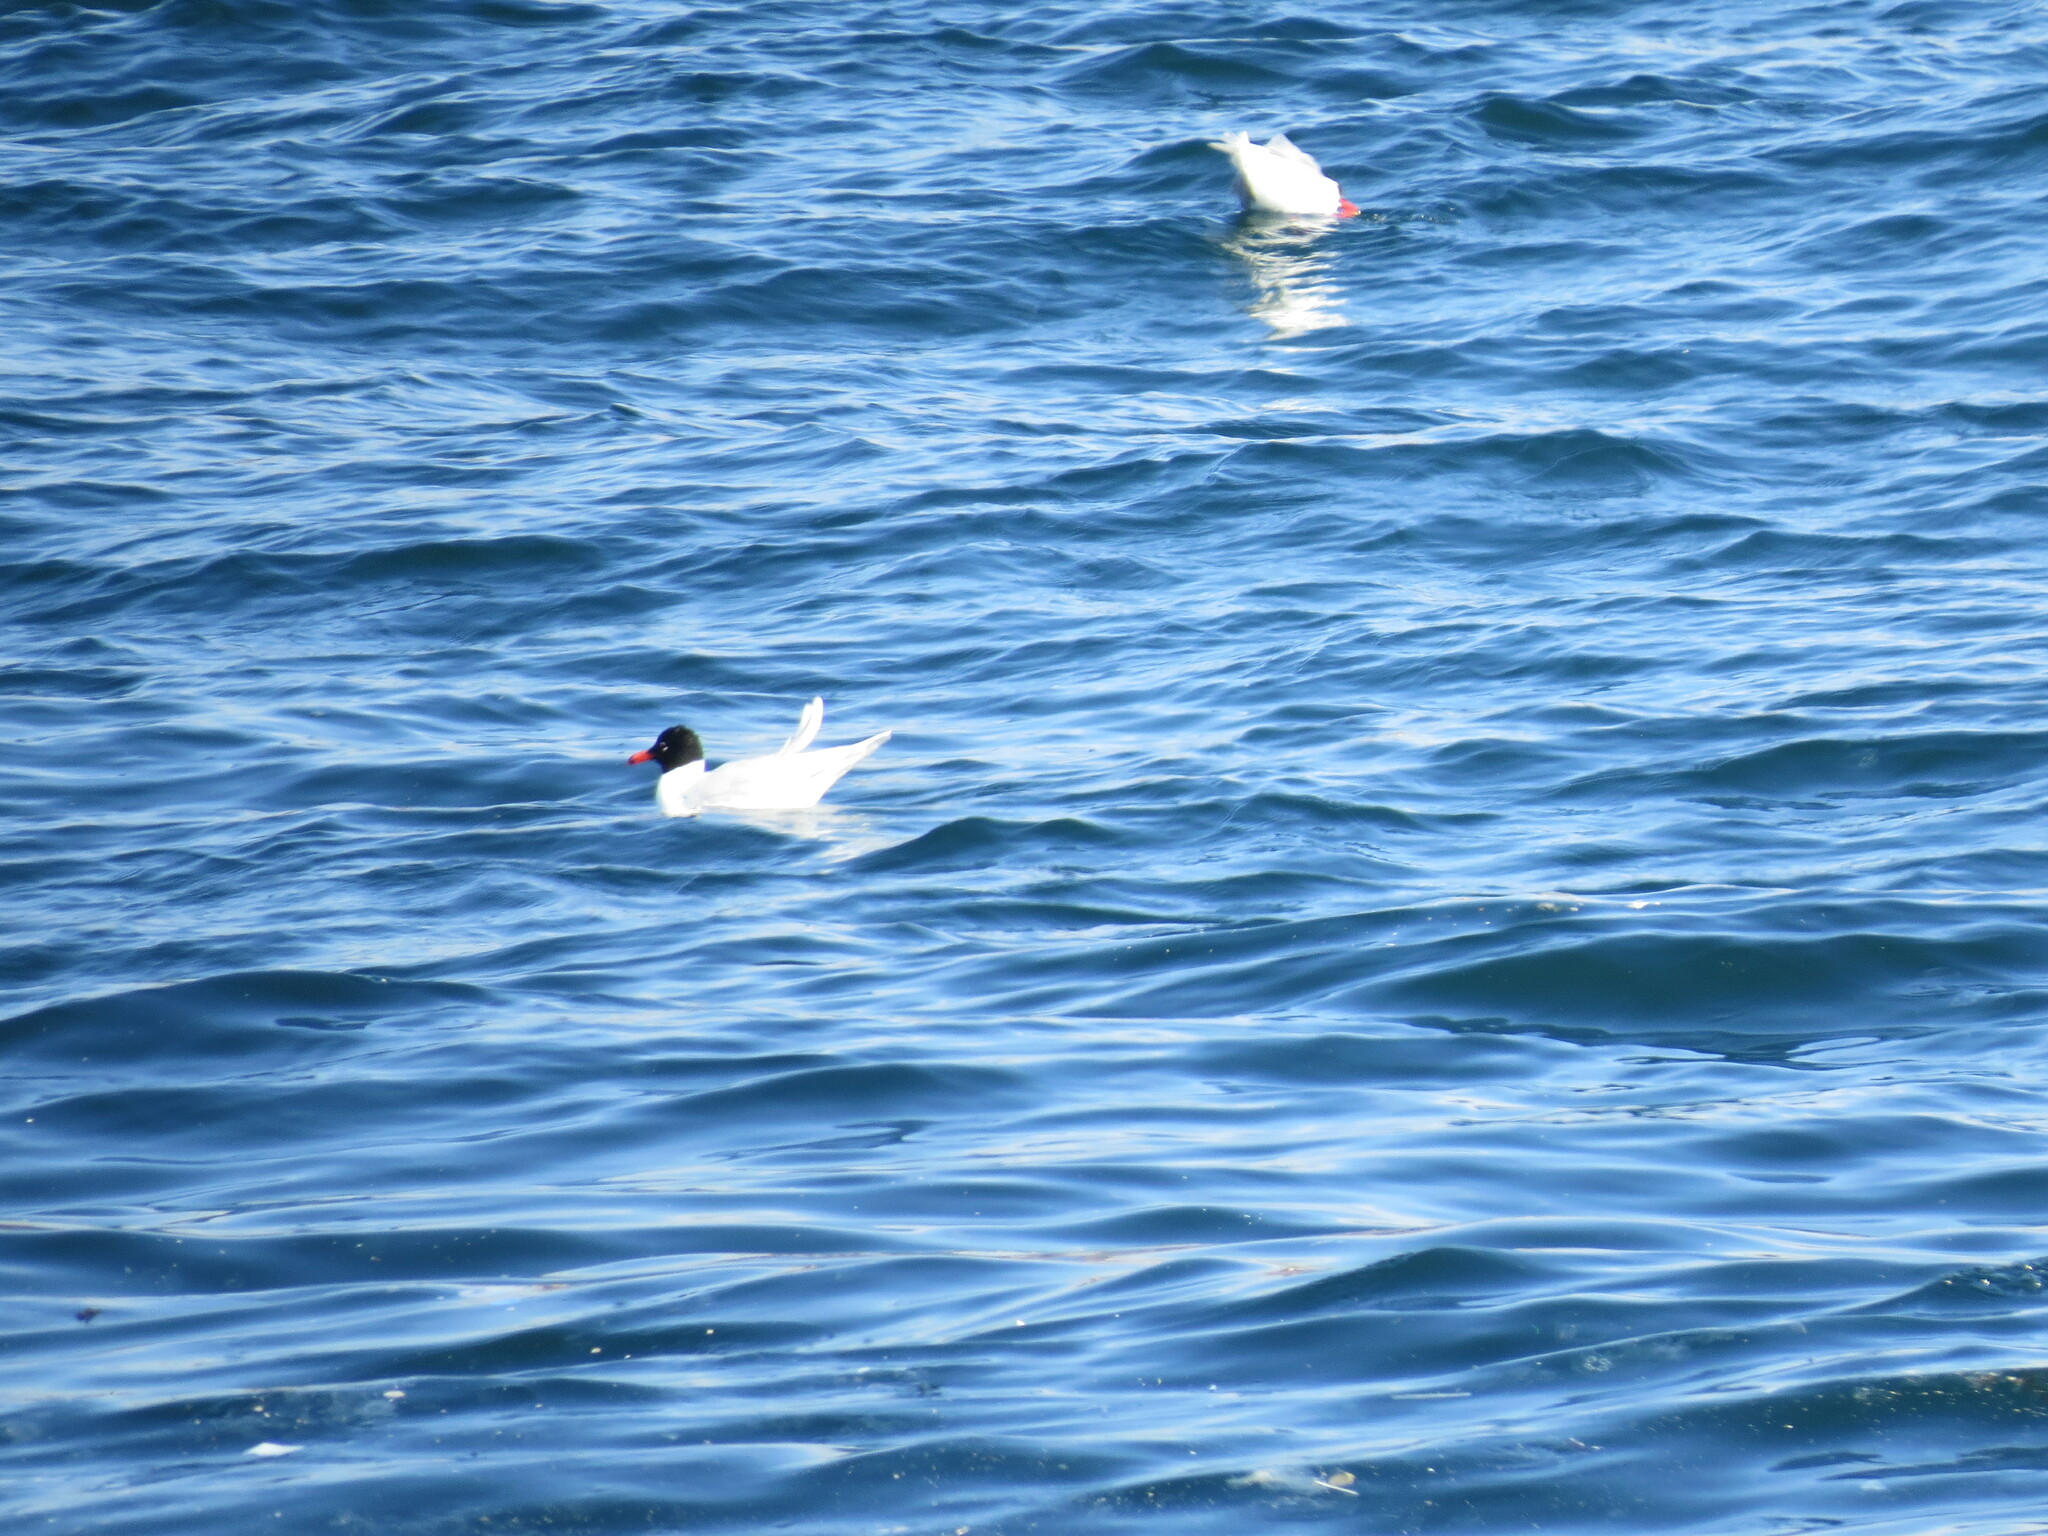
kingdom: Animalia
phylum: Chordata
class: Aves
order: Charadriiformes
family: Laridae
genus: Ichthyaetus
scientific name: Ichthyaetus melanocephalus
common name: Mediterranean gull
